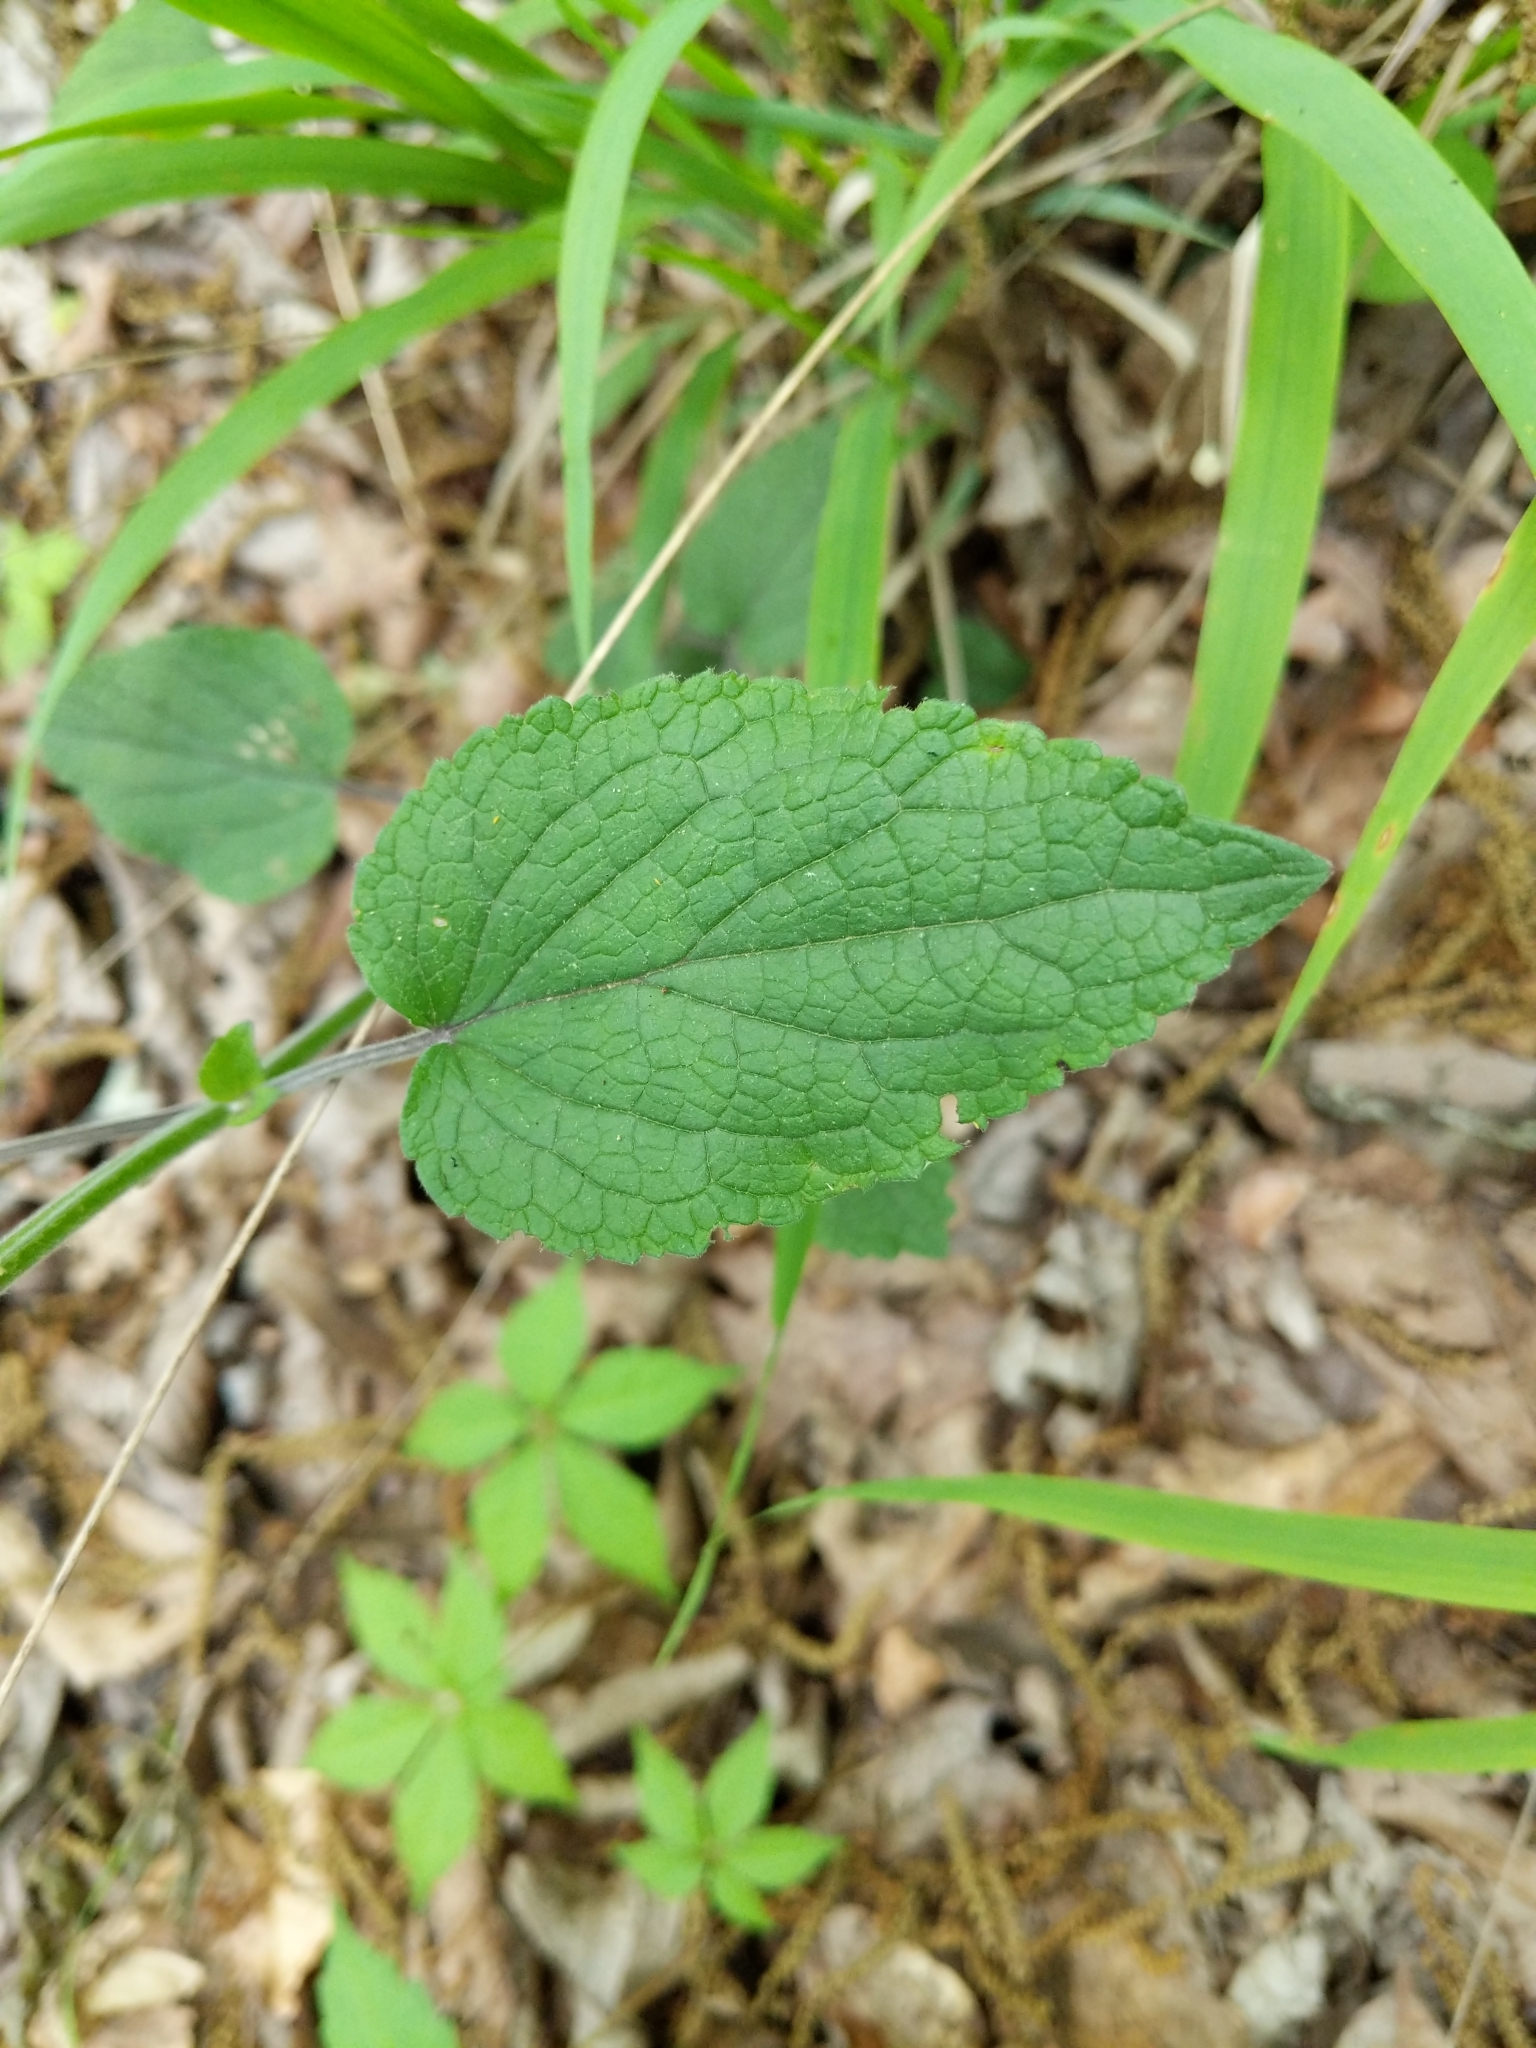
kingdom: Plantae
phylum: Tracheophyta
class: Magnoliopsida
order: Lamiales
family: Lamiaceae
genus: Scutellaria
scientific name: Scutellaria ovata
